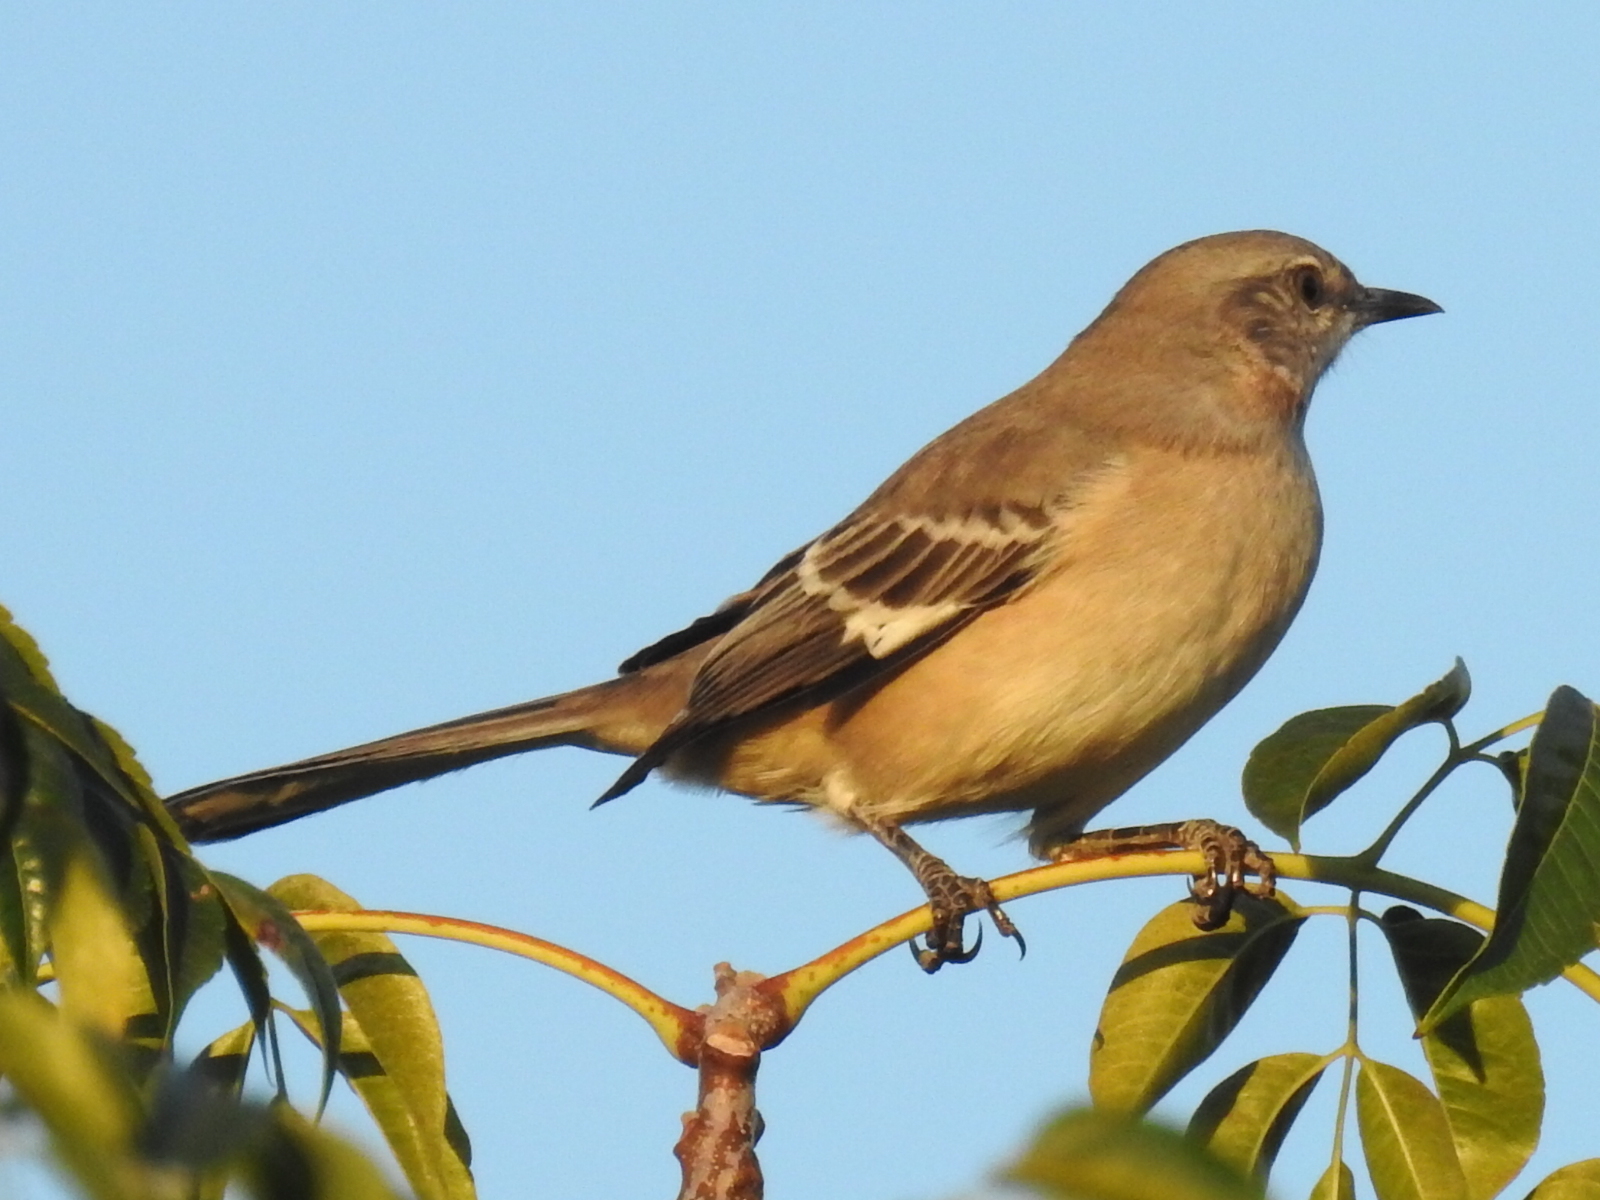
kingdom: Animalia
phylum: Chordata
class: Aves
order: Passeriformes
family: Mimidae
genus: Mimus
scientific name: Mimus polyglottos
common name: Northern mockingbird
